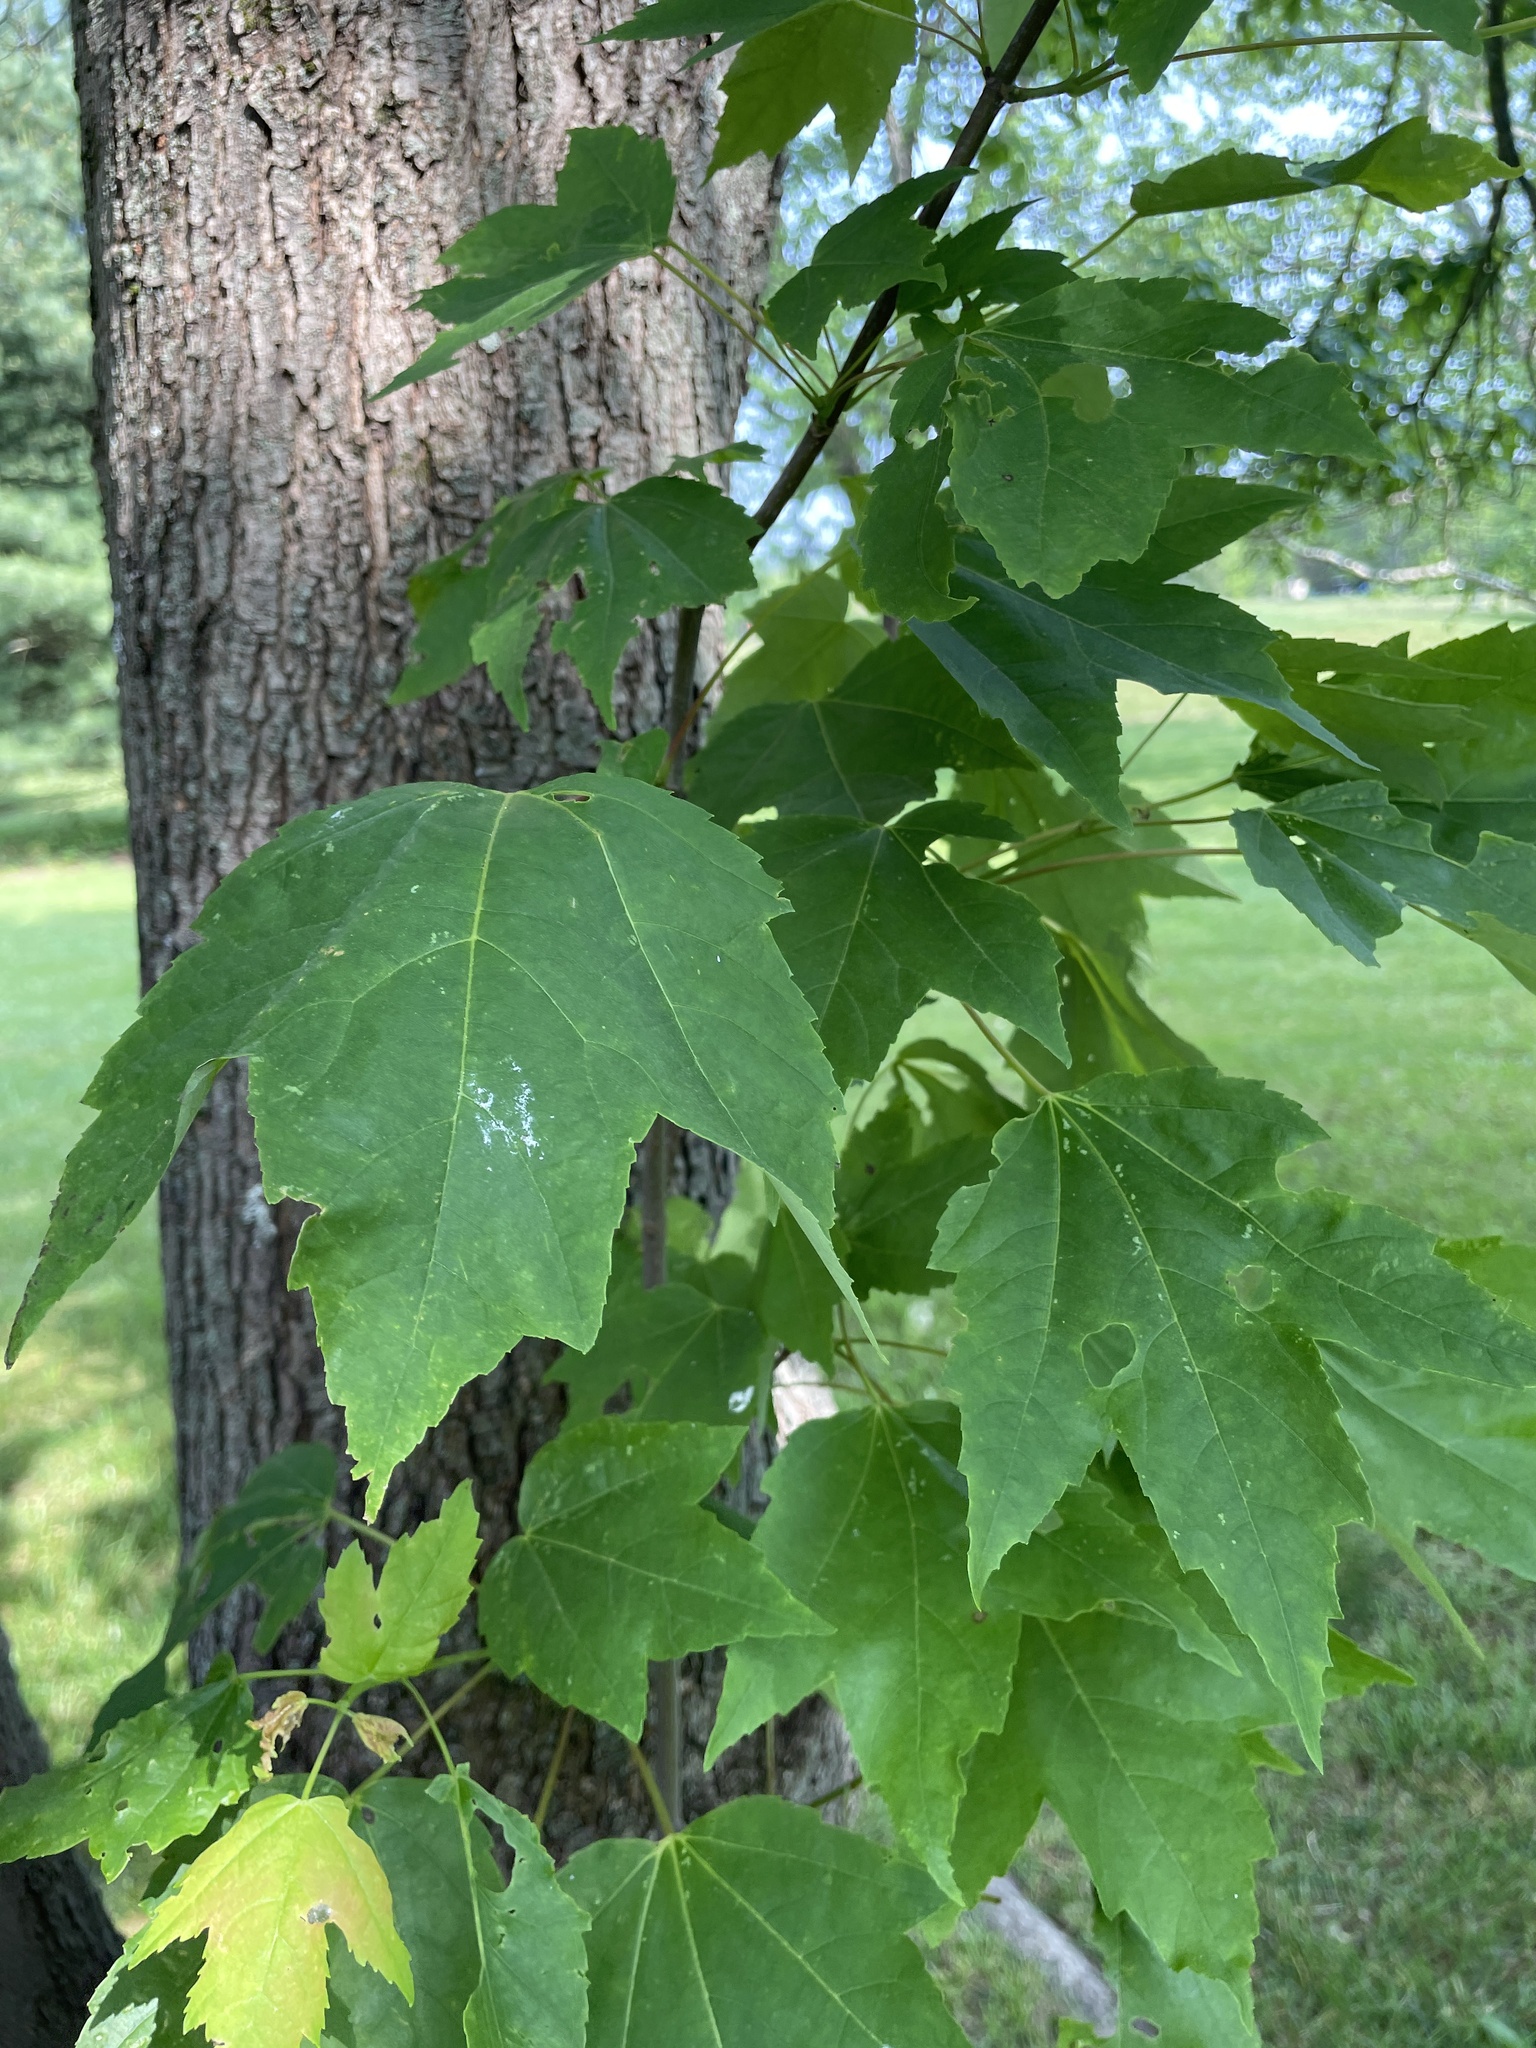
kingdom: Plantae
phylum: Tracheophyta
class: Magnoliopsida
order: Sapindales
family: Sapindaceae
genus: Acer
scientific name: Acer rubrum
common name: Red maple
